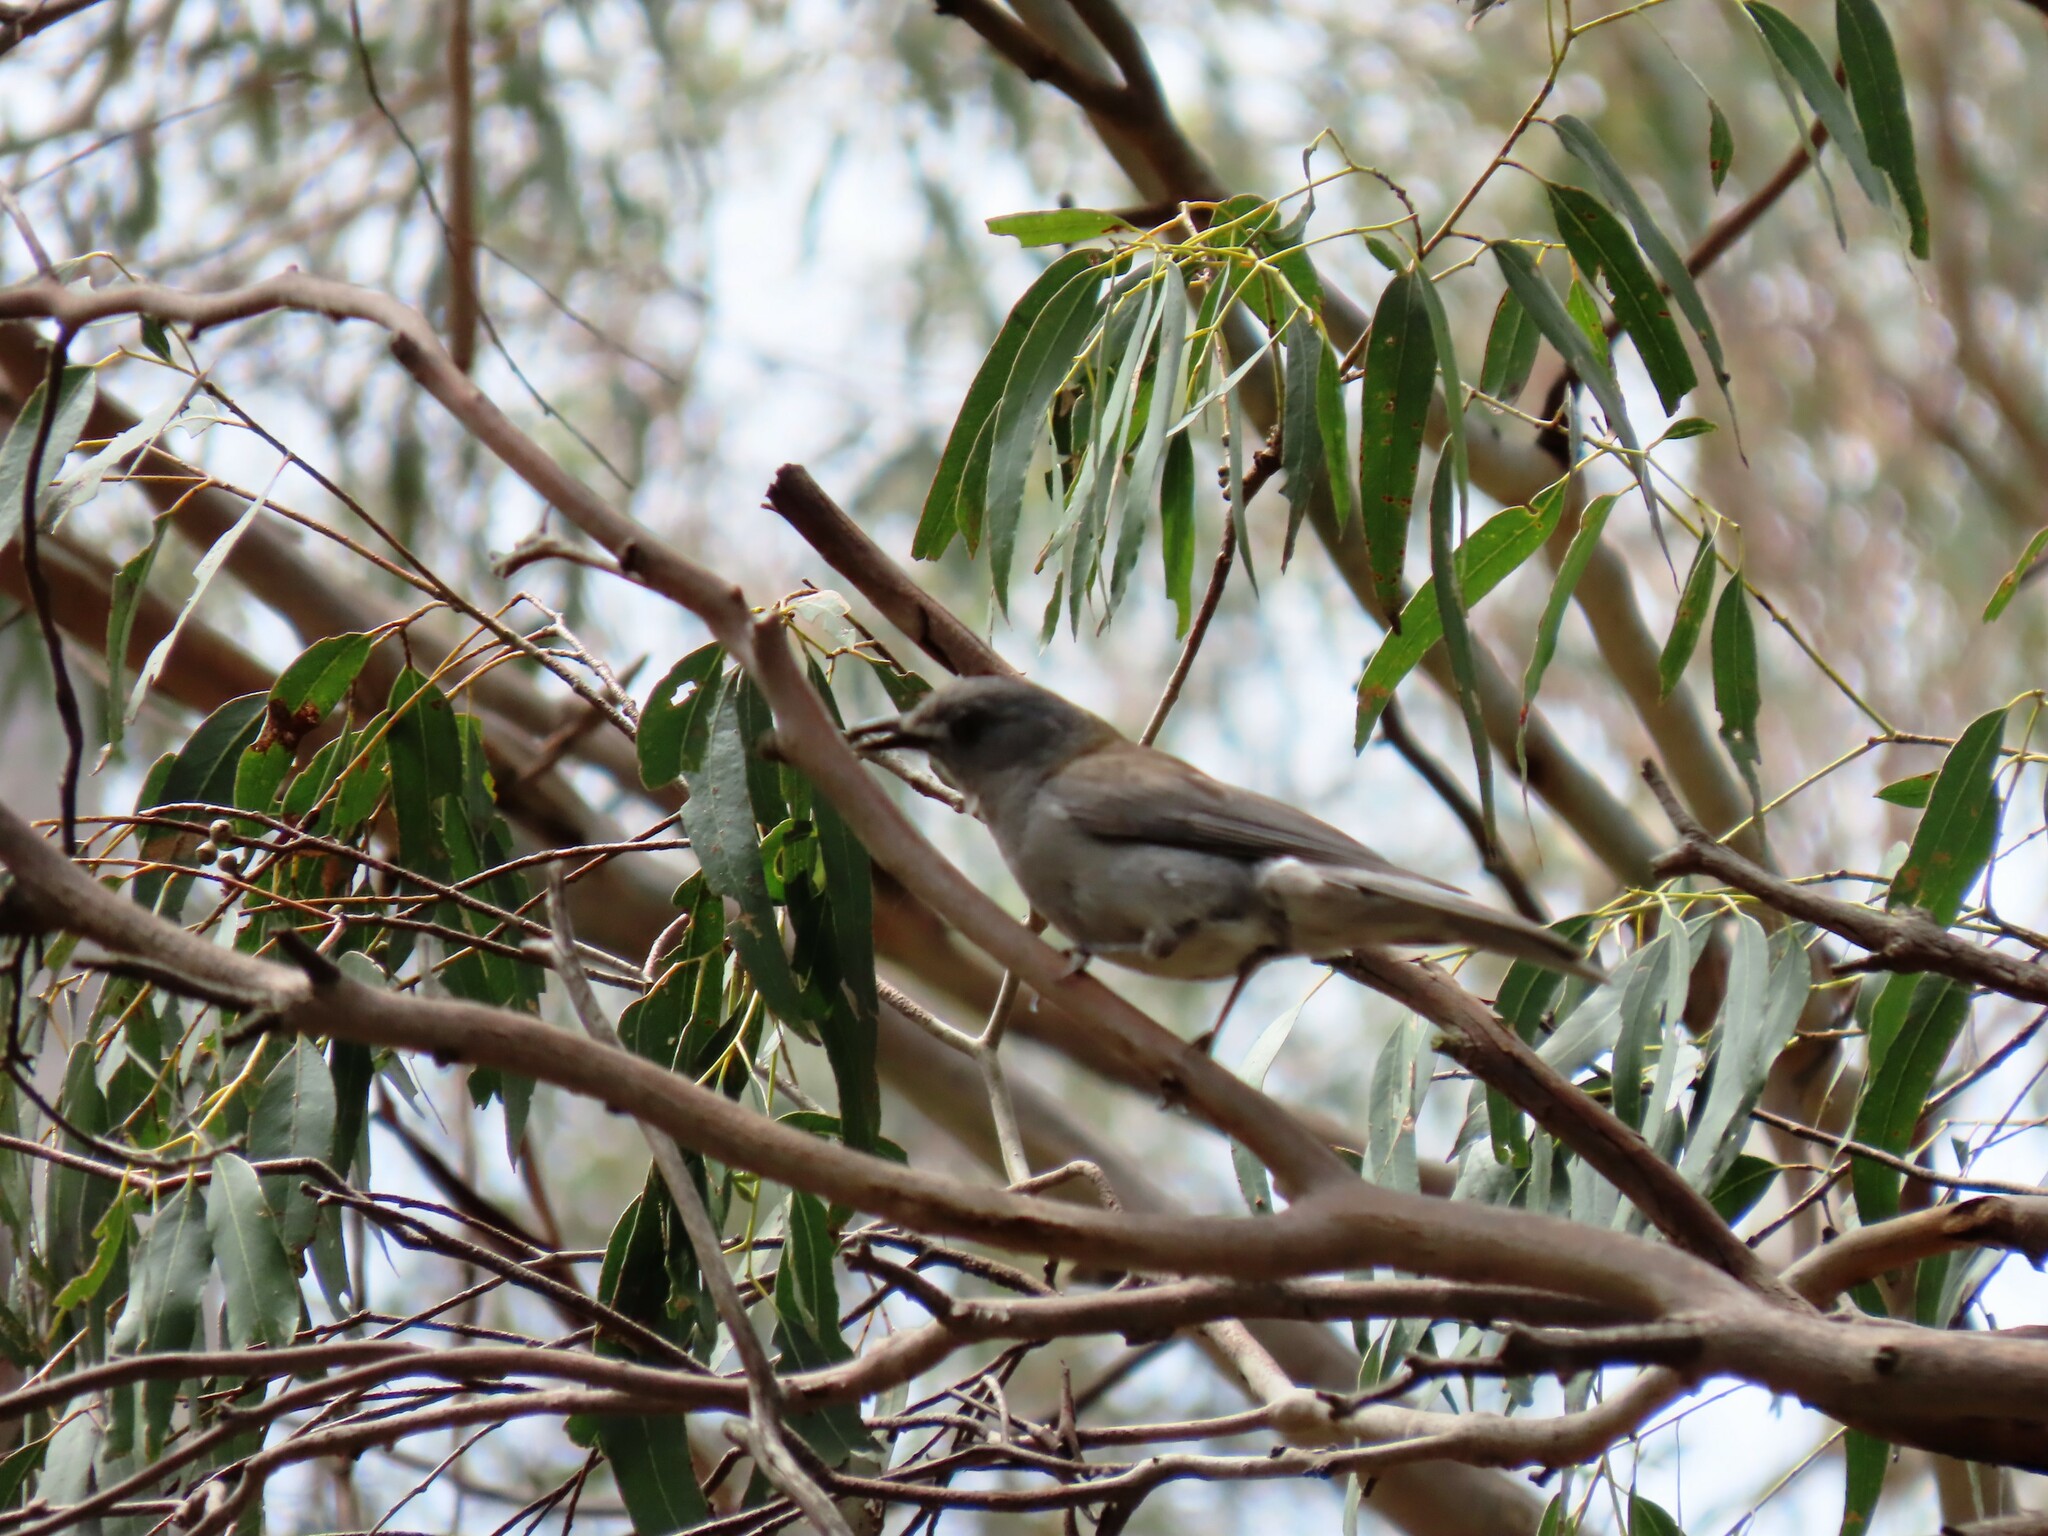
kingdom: Animalia
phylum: Chordata
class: Aves
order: Passeriformes
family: Pachycephalidae
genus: Colluricincla
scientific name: Colluricincla harmonica
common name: Grey shrikethrush
